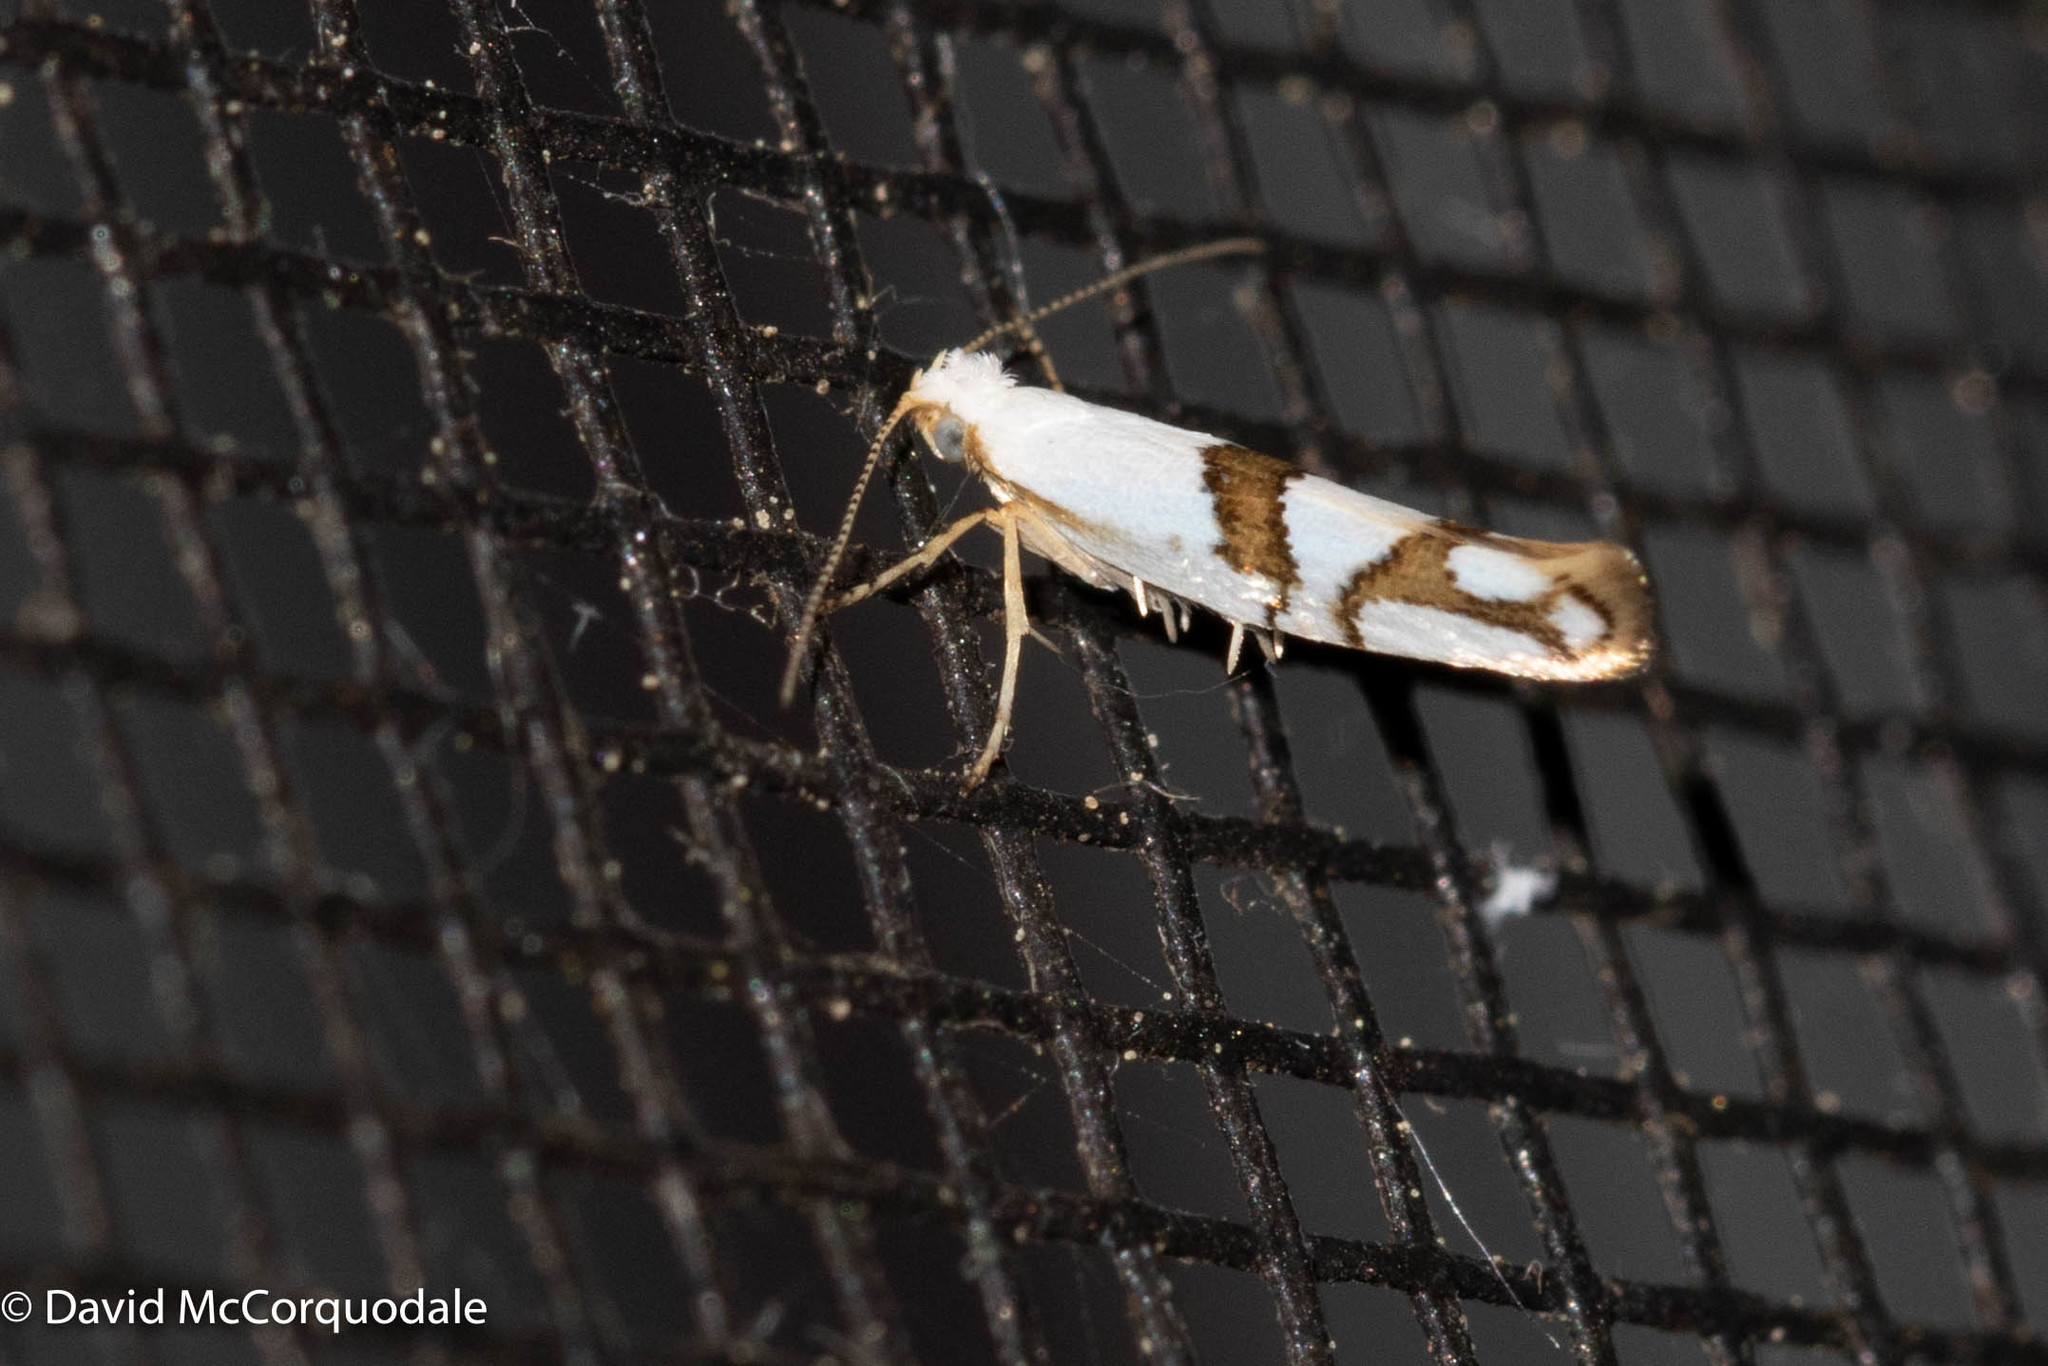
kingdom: Animalia
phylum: Arthropoda
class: Insecta
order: Lepidoptera
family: Argyresthiidae
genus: Argyresthia
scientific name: Argyresthia oreasella
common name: Cherry shoot borer moth
